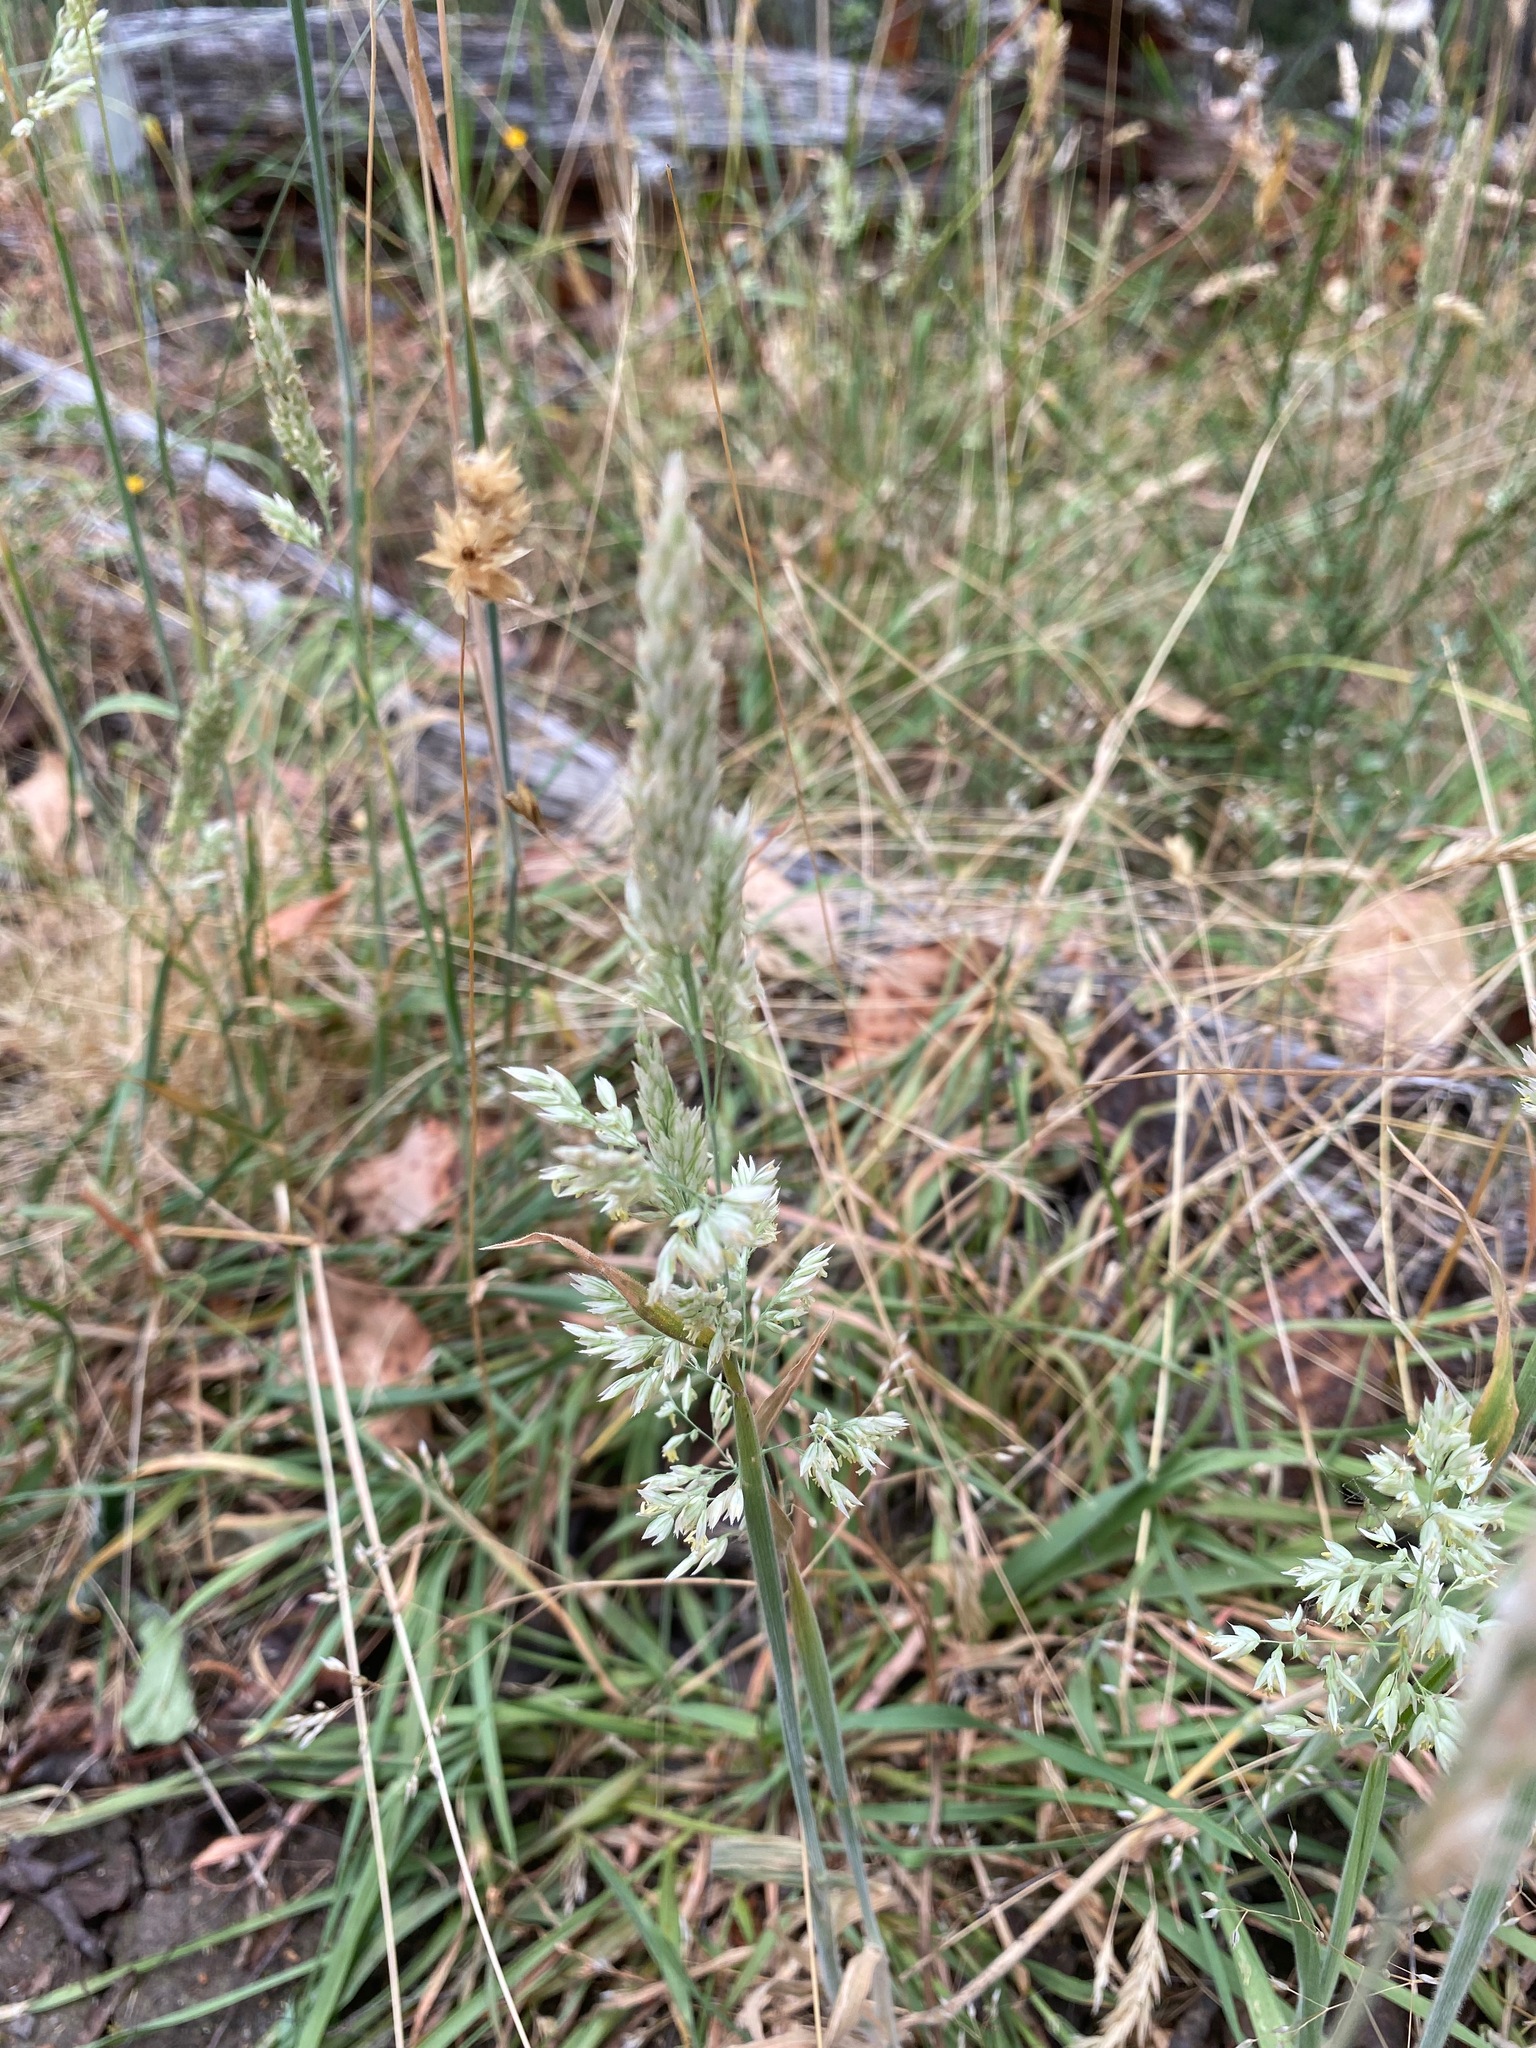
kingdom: Plantae
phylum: Tracheophyta
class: Liliopsida
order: Poales
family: Poaceae
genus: Holcus
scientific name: Holcus lanatus
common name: Yorkshire-fog
